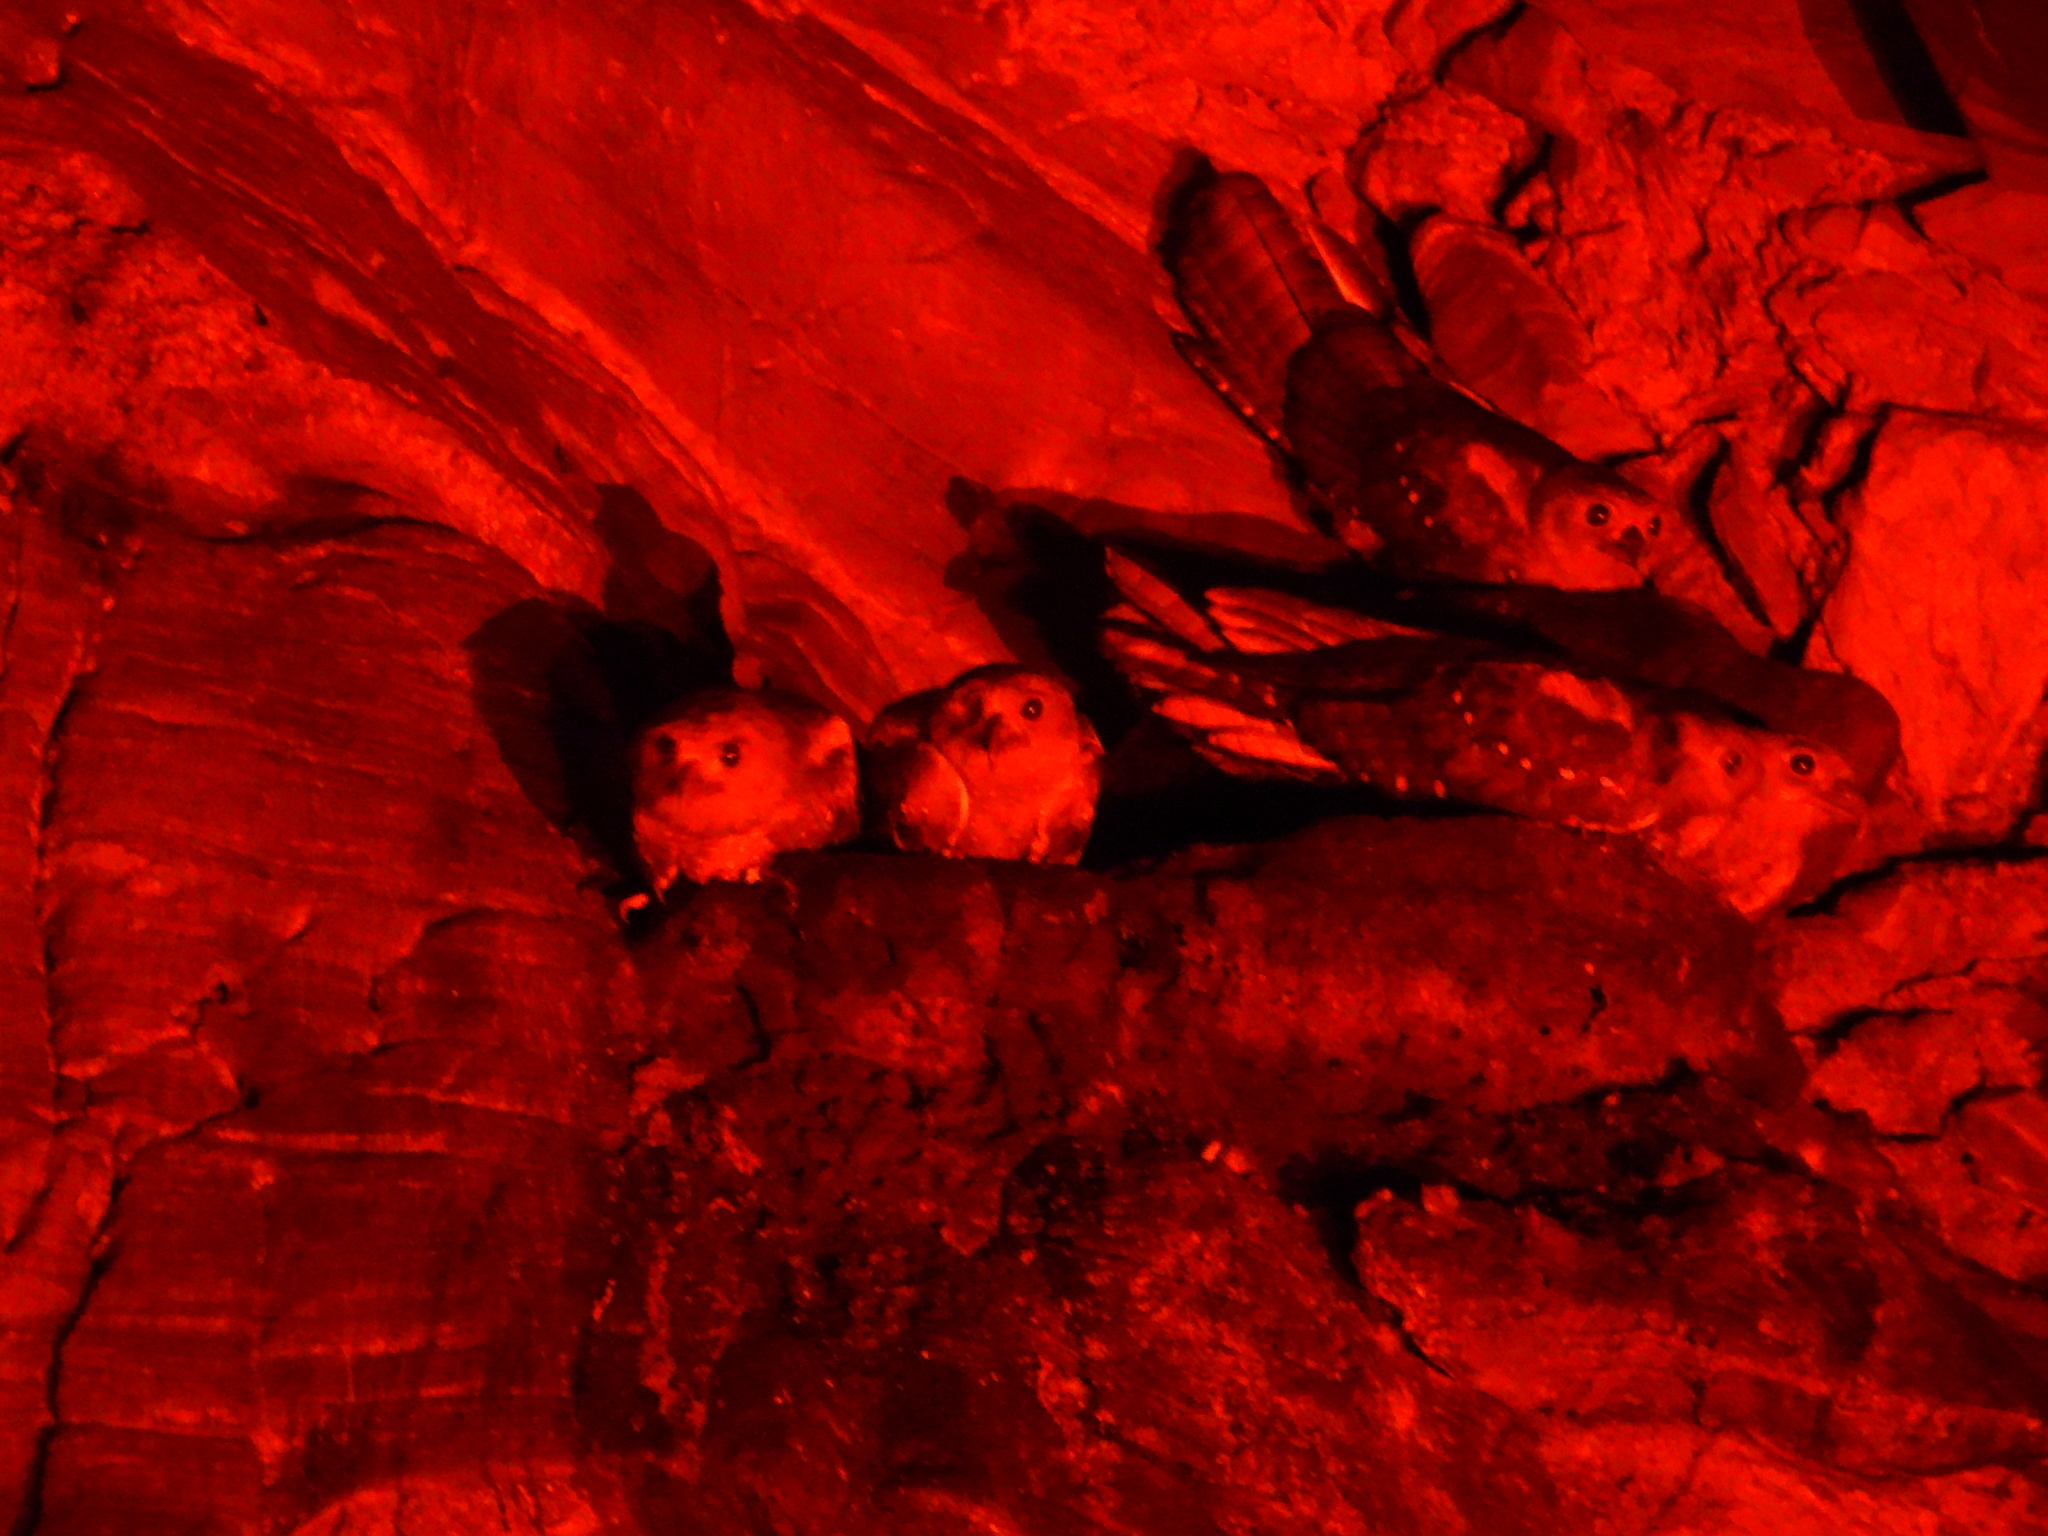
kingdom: Animalia
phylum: Chordata
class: Aves
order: Steatornithiformes
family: Steatornithidae
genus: Steatornis
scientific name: Steatornis caripensis
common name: Oilbird
